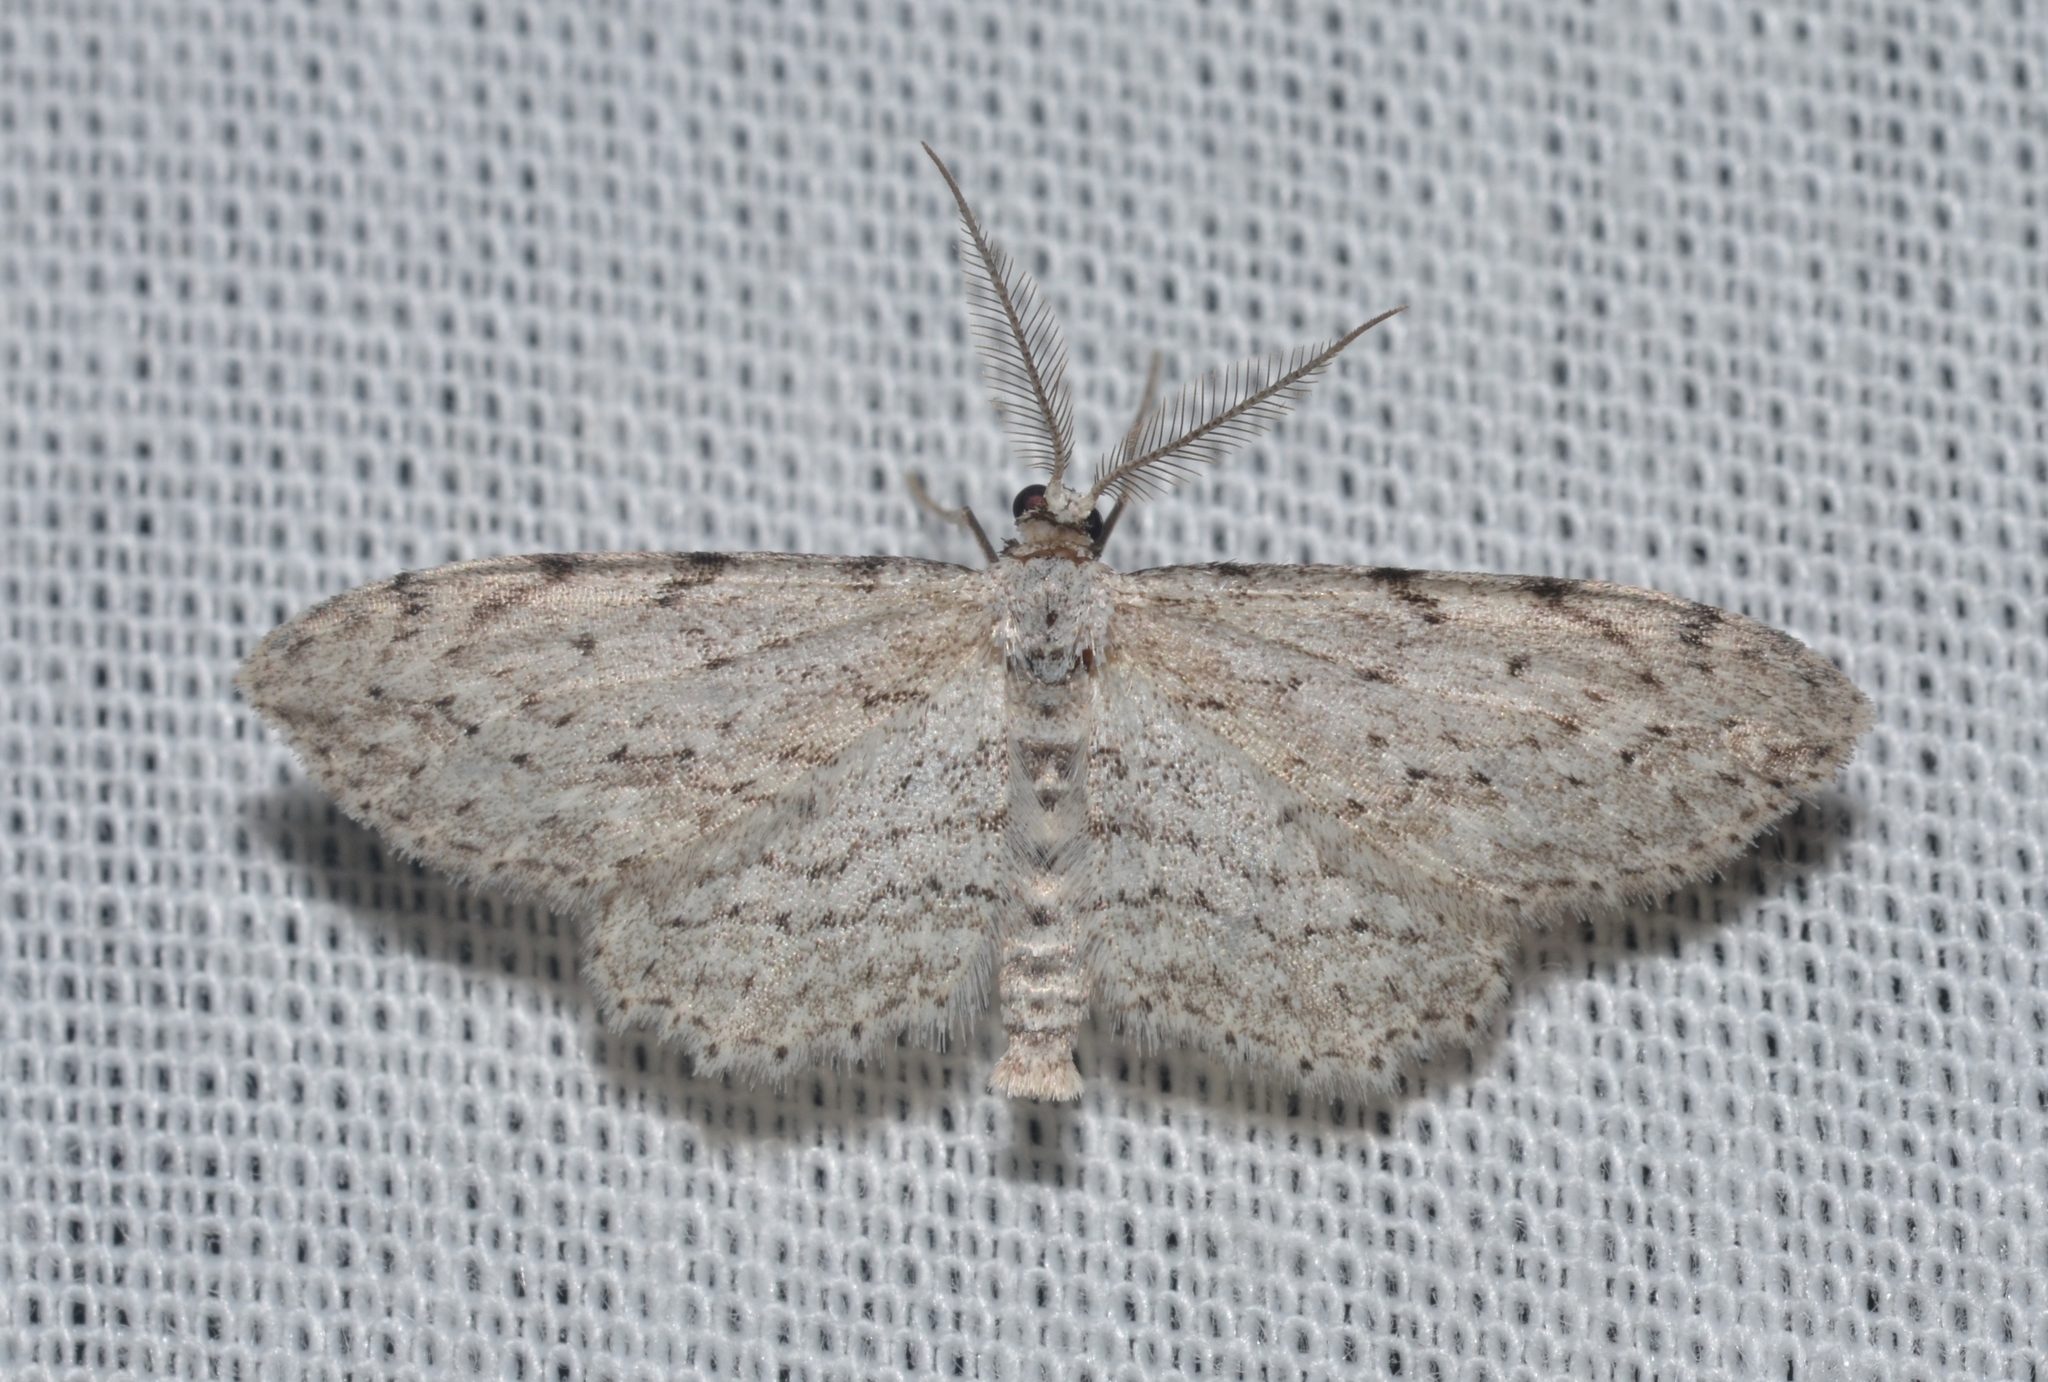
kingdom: Animalia
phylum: Arthropoda
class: Insecta
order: Lepidoptera
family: Geometridae
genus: Pimaphera
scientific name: Pimaphera sparsaria
